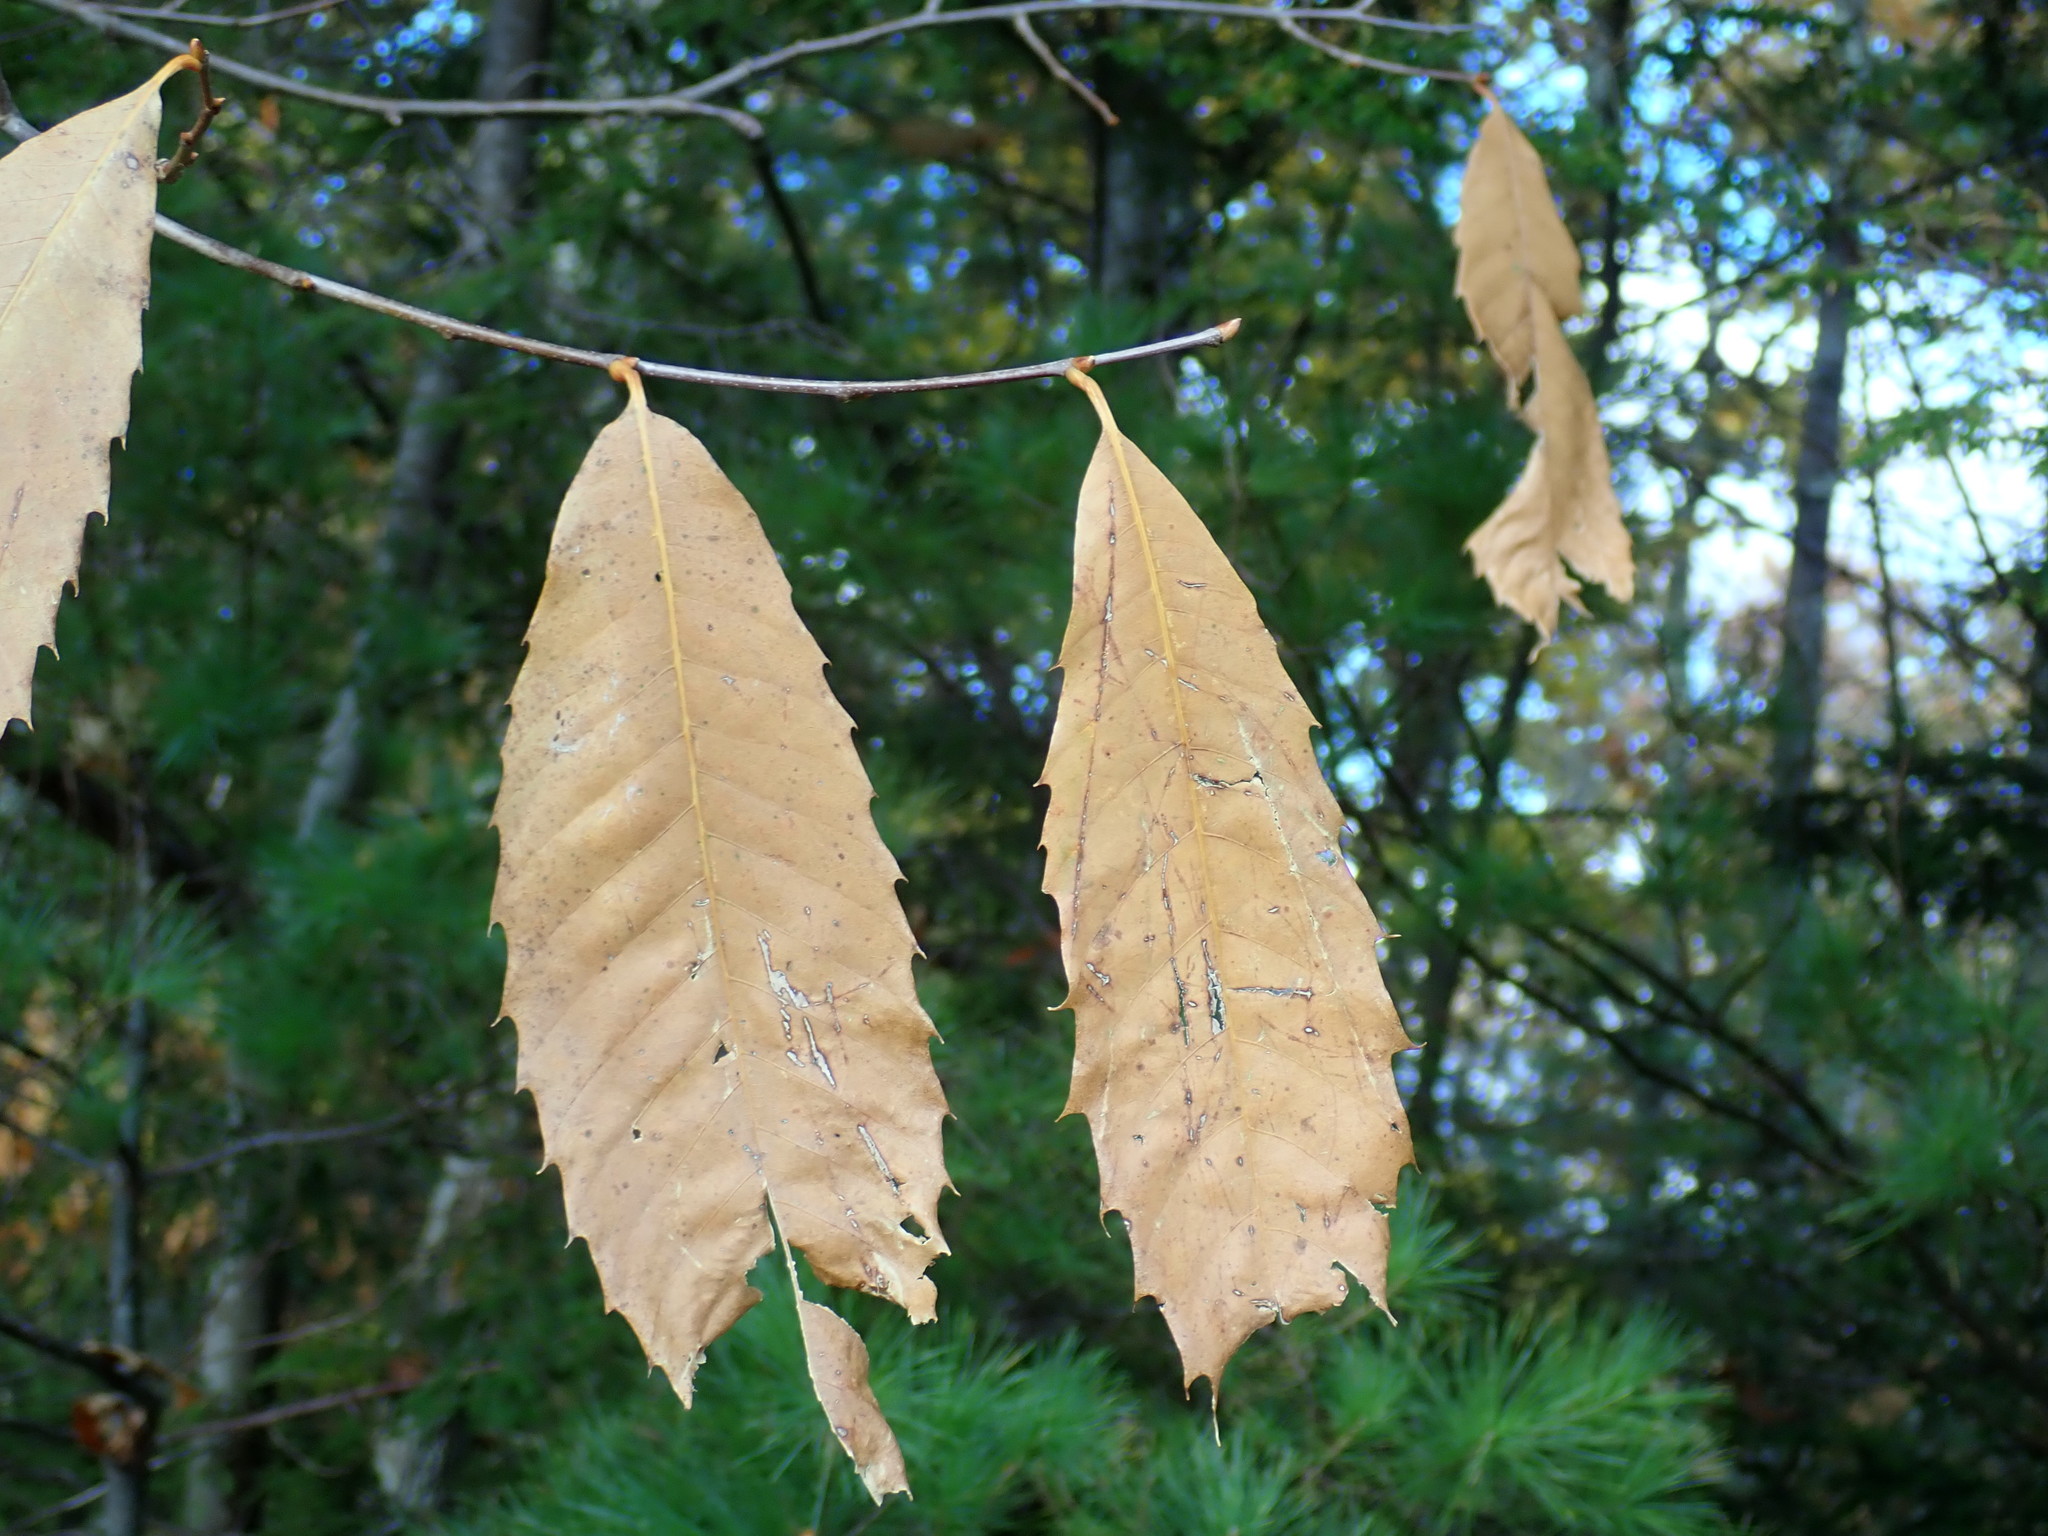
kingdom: Plantae
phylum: Tracheophyta
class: Magnoliopsida
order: Fagales
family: Fagaceae
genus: Castanea
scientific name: Castanea dentata
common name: American chestnut
